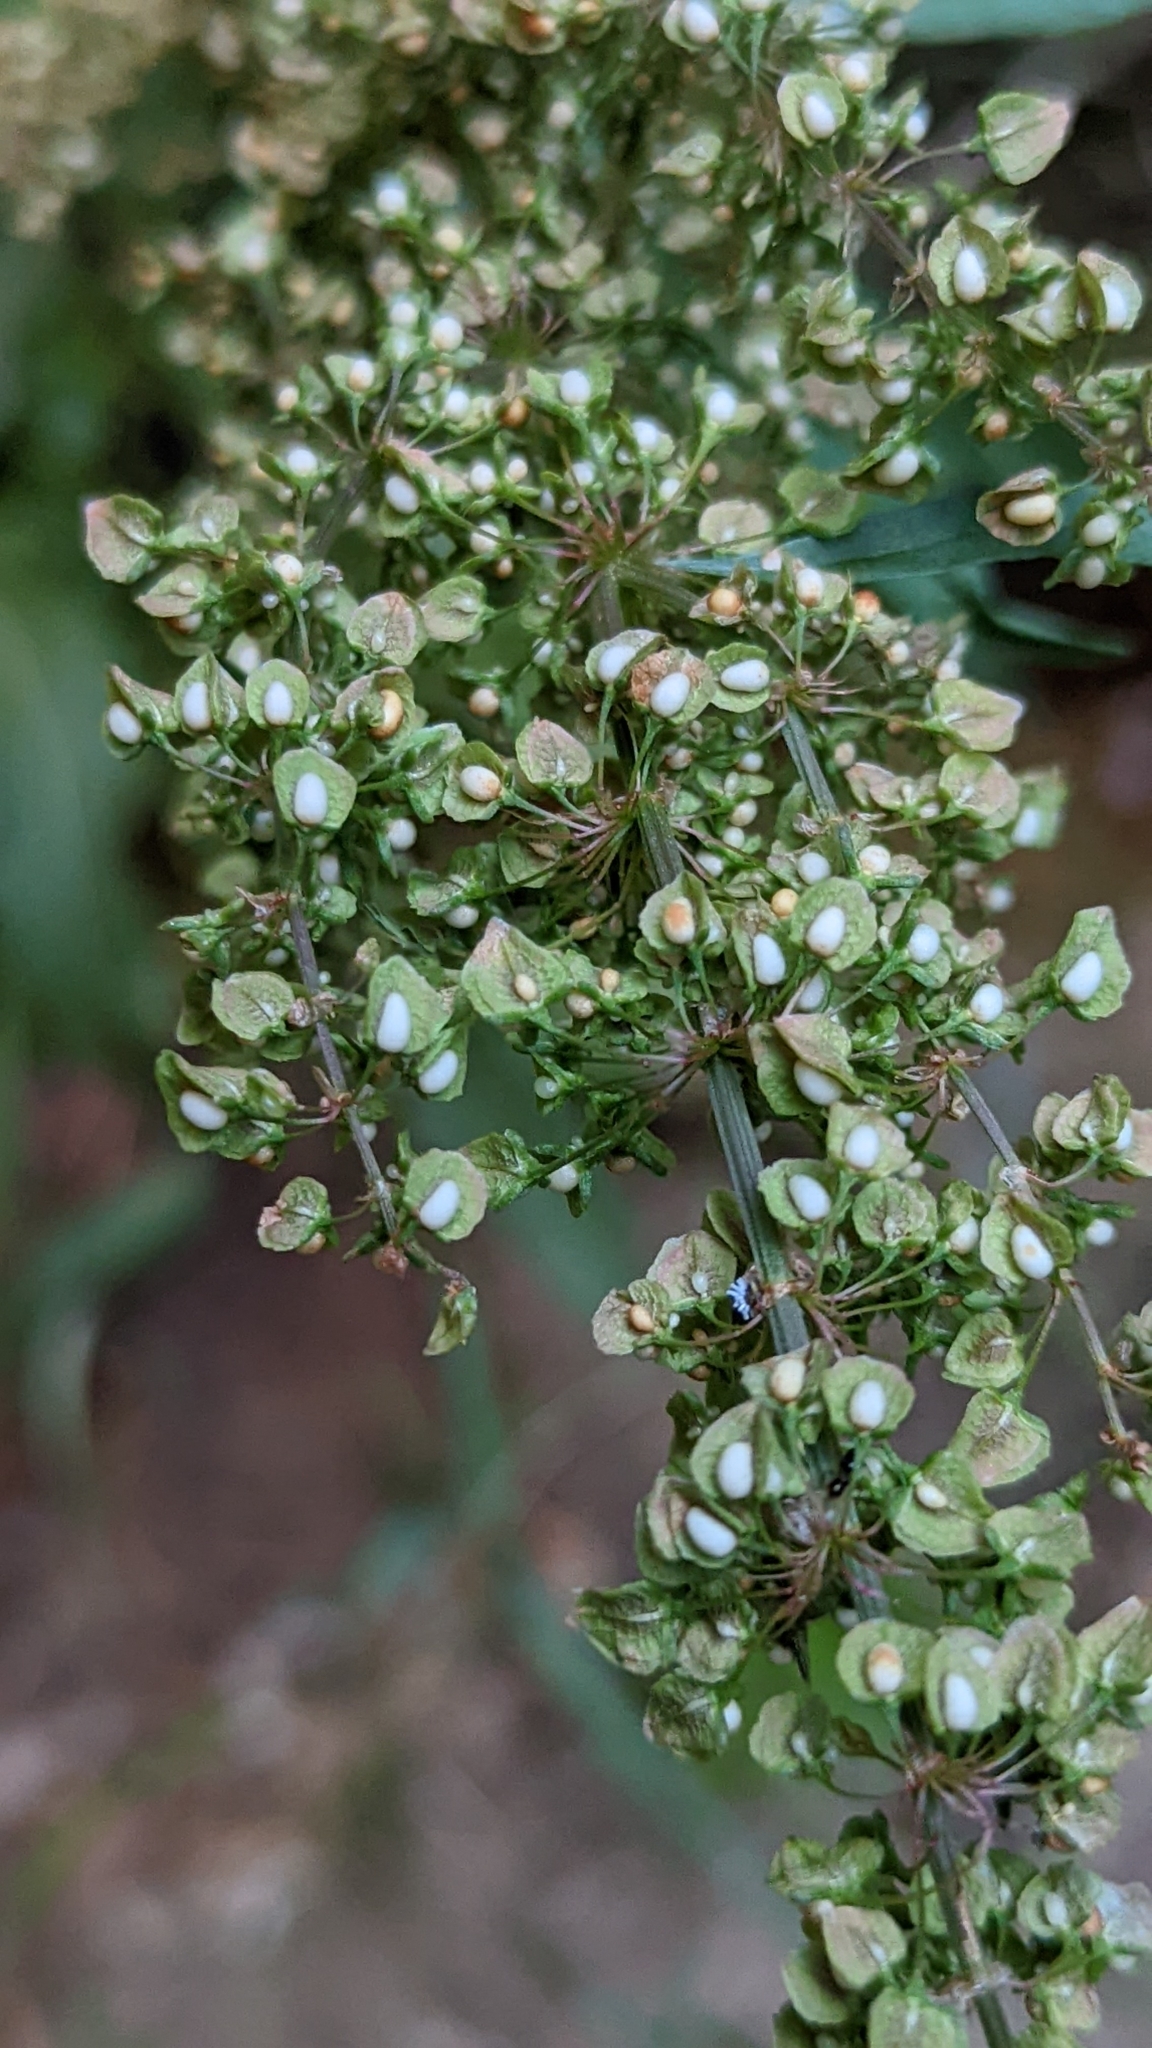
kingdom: Plantae
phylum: Tracheophyta
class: Magnoliopsida
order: Caryophyllales
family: Polygonaceae
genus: Rumex
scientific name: Rumex crispus
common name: Curled dock
